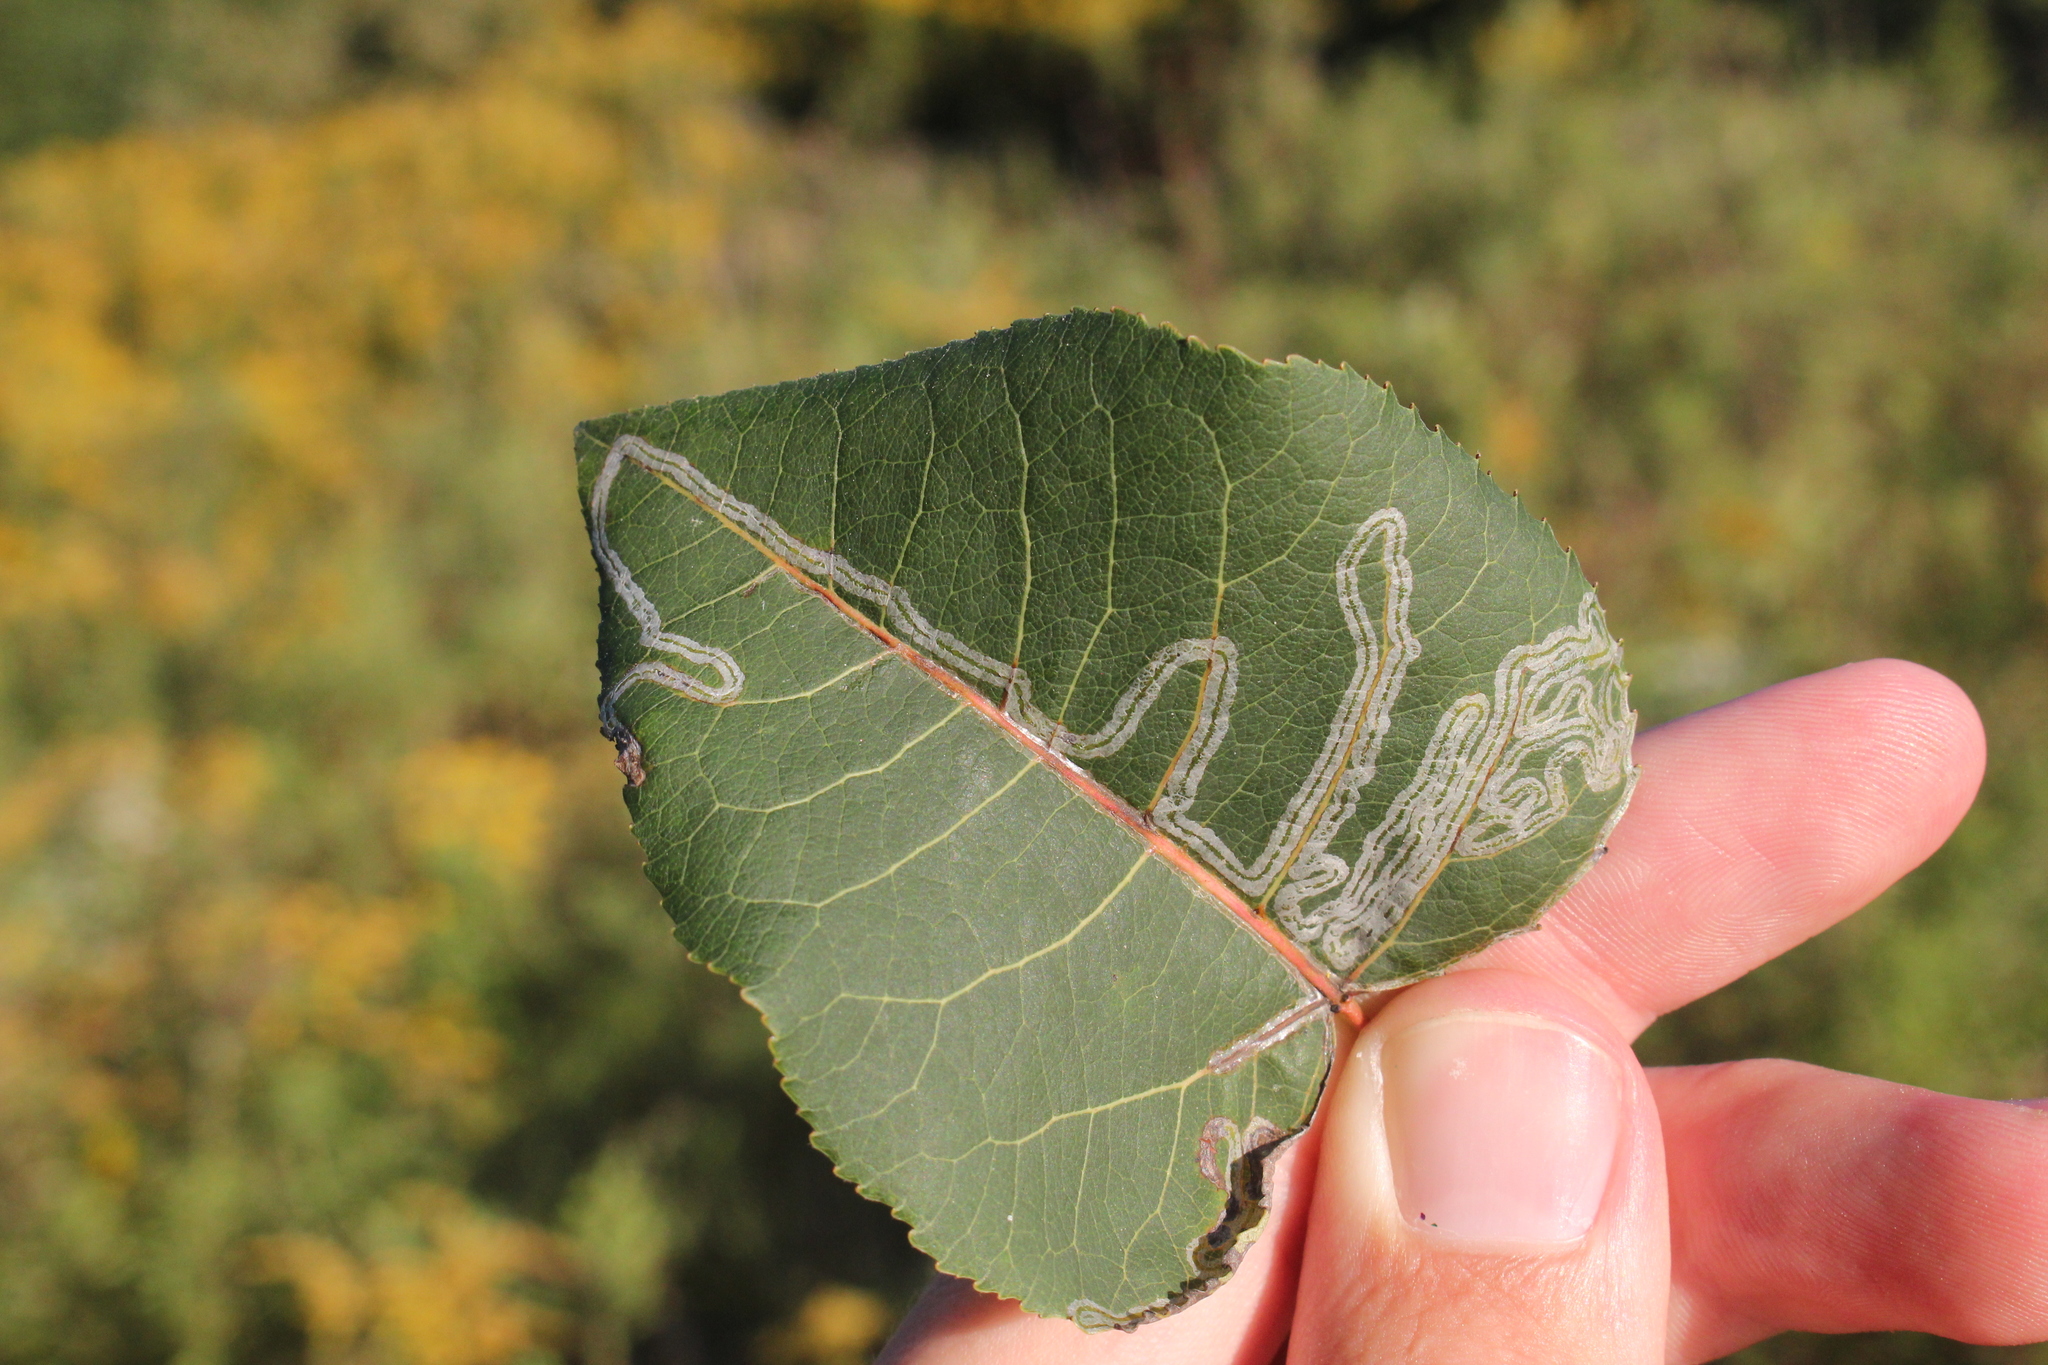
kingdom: Animalia
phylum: Arthropoda
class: Insecta
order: Lepidoptera
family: Gracillariidae
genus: Phyllocnistis
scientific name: Phyllocnistis populiella
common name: Aspen serpentine leafminer moth
